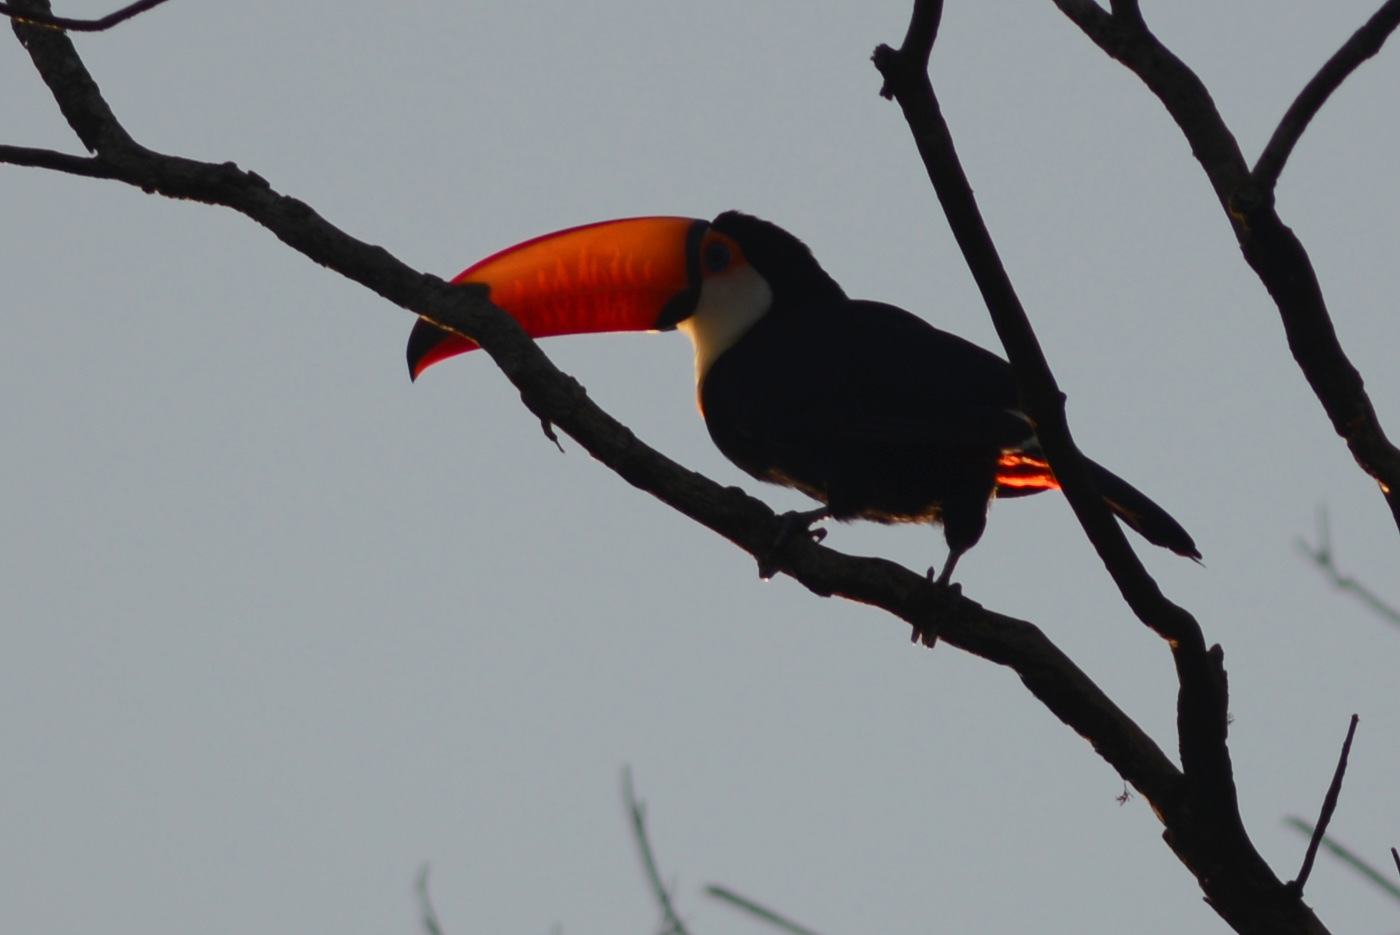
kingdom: Animalia
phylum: Chordata
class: Aves
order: Piciformes
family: Ramphastidae
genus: Ramphastos
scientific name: Ramphastos toco
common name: Toco toucan
